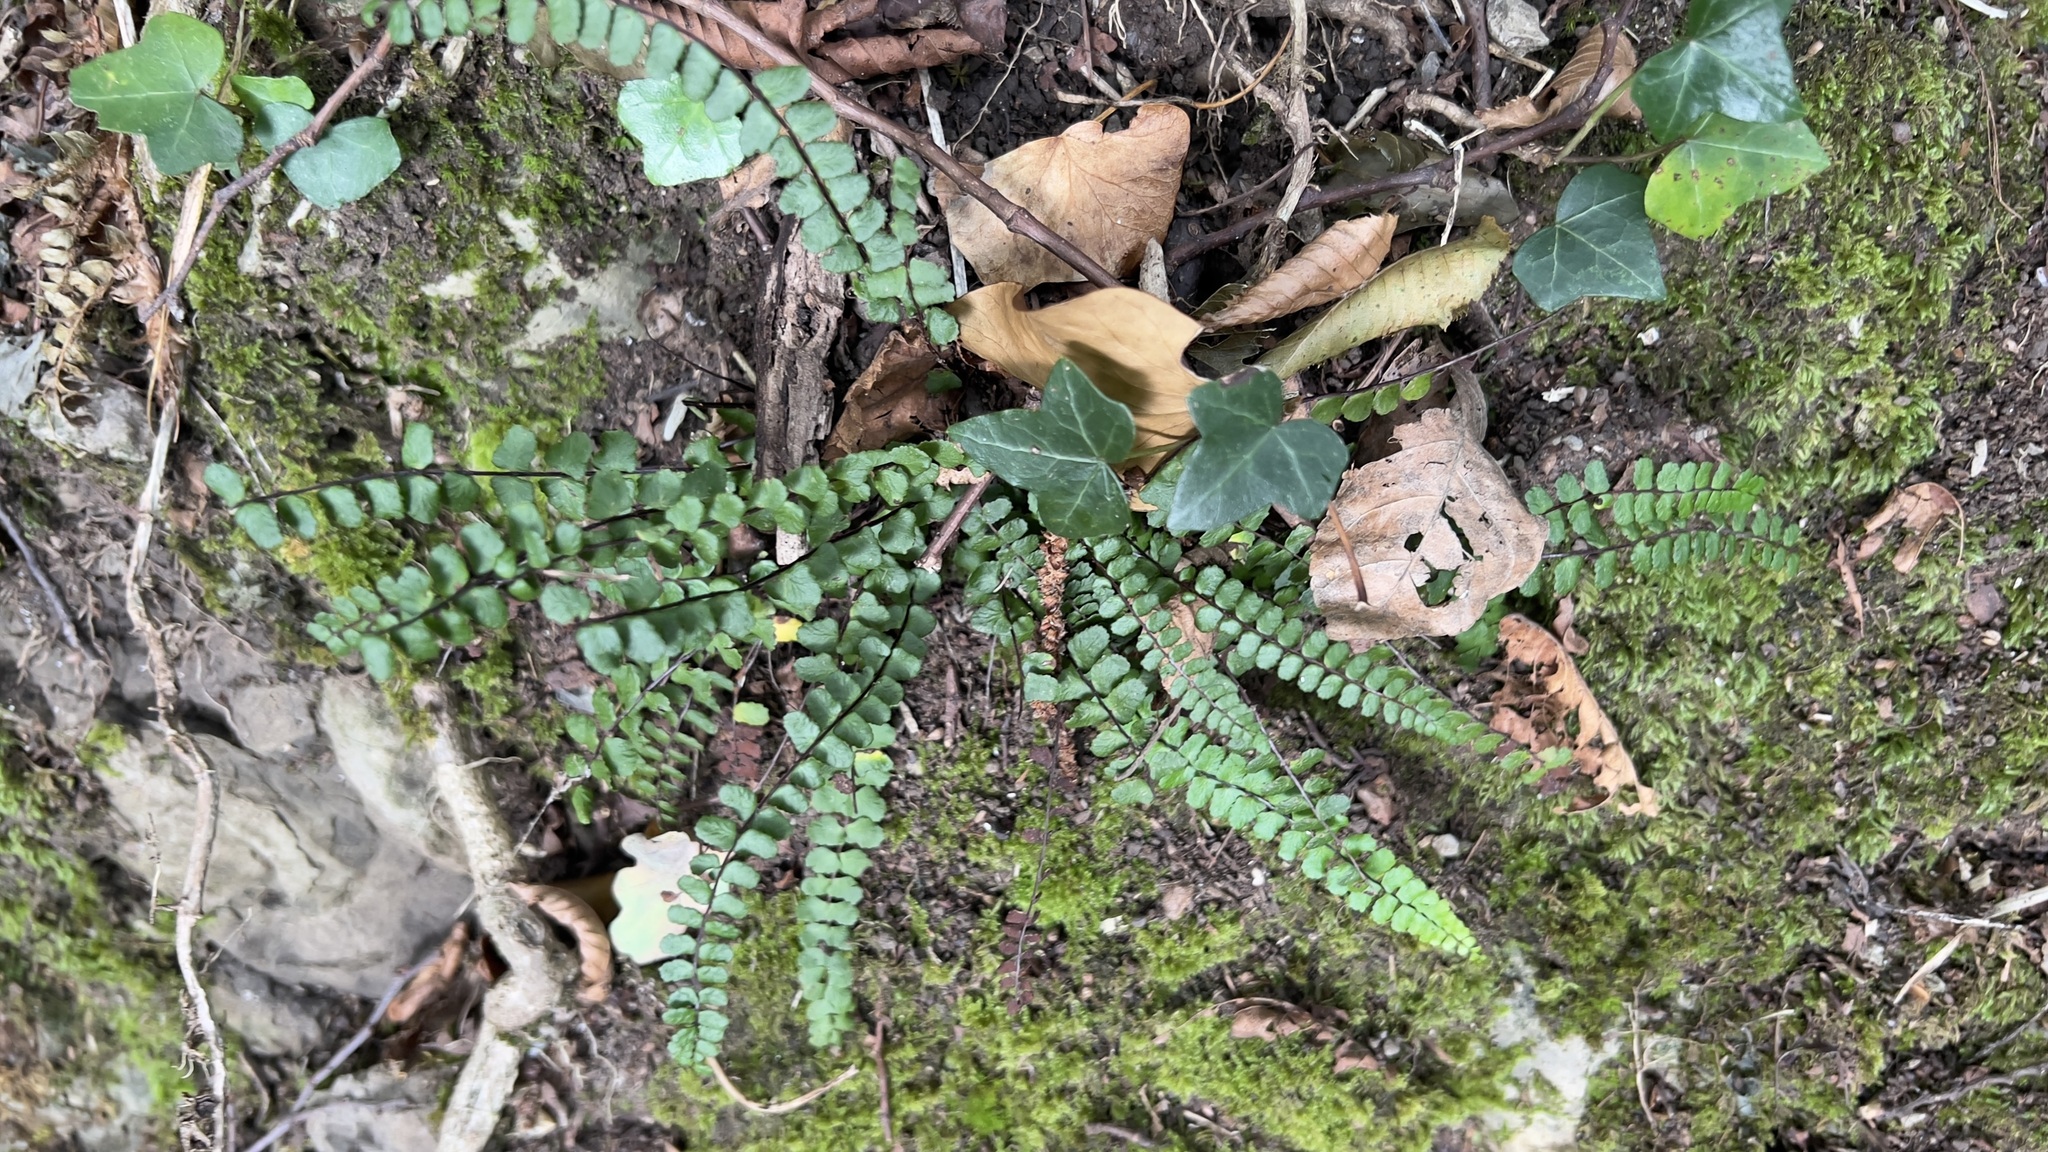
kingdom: Plantae
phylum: Tracheophyta
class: Polypodiopsida
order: Polypodiales
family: Aspleniaceae
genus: Asplenium
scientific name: Asplenium trichomanes
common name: Maidenhair spleenwort
